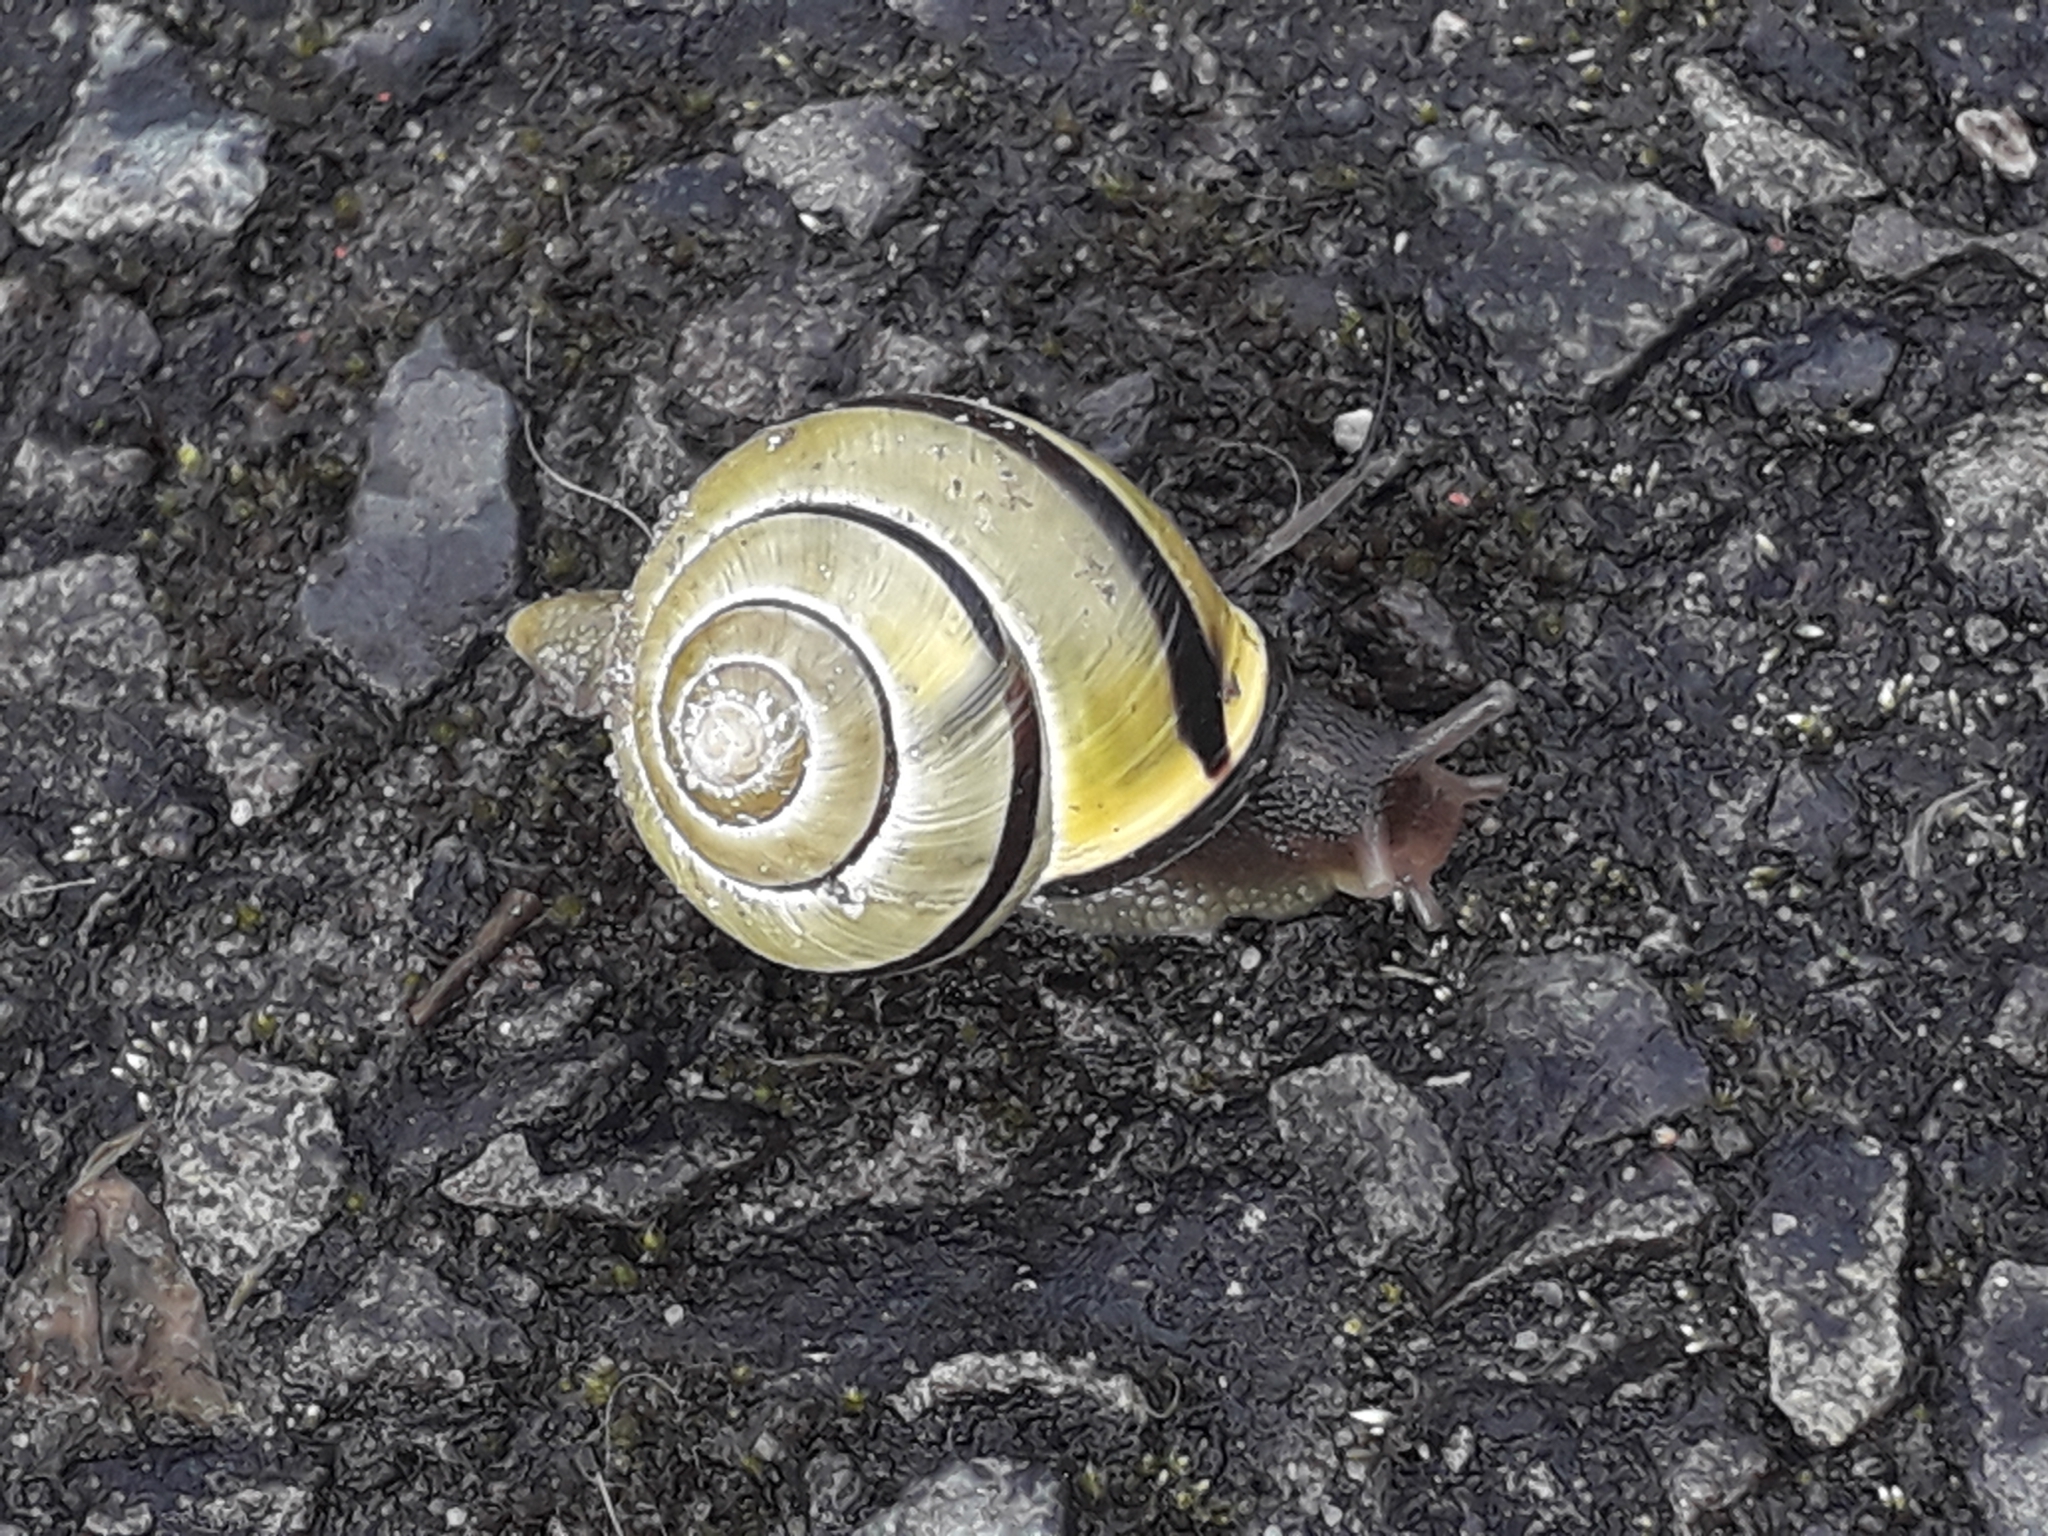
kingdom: Animalia
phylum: Mollusca
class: Gastropoda
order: Stylommatophora
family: Helicidae
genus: Cepaea
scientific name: Cepaea nemoralis
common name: Grovesnail
